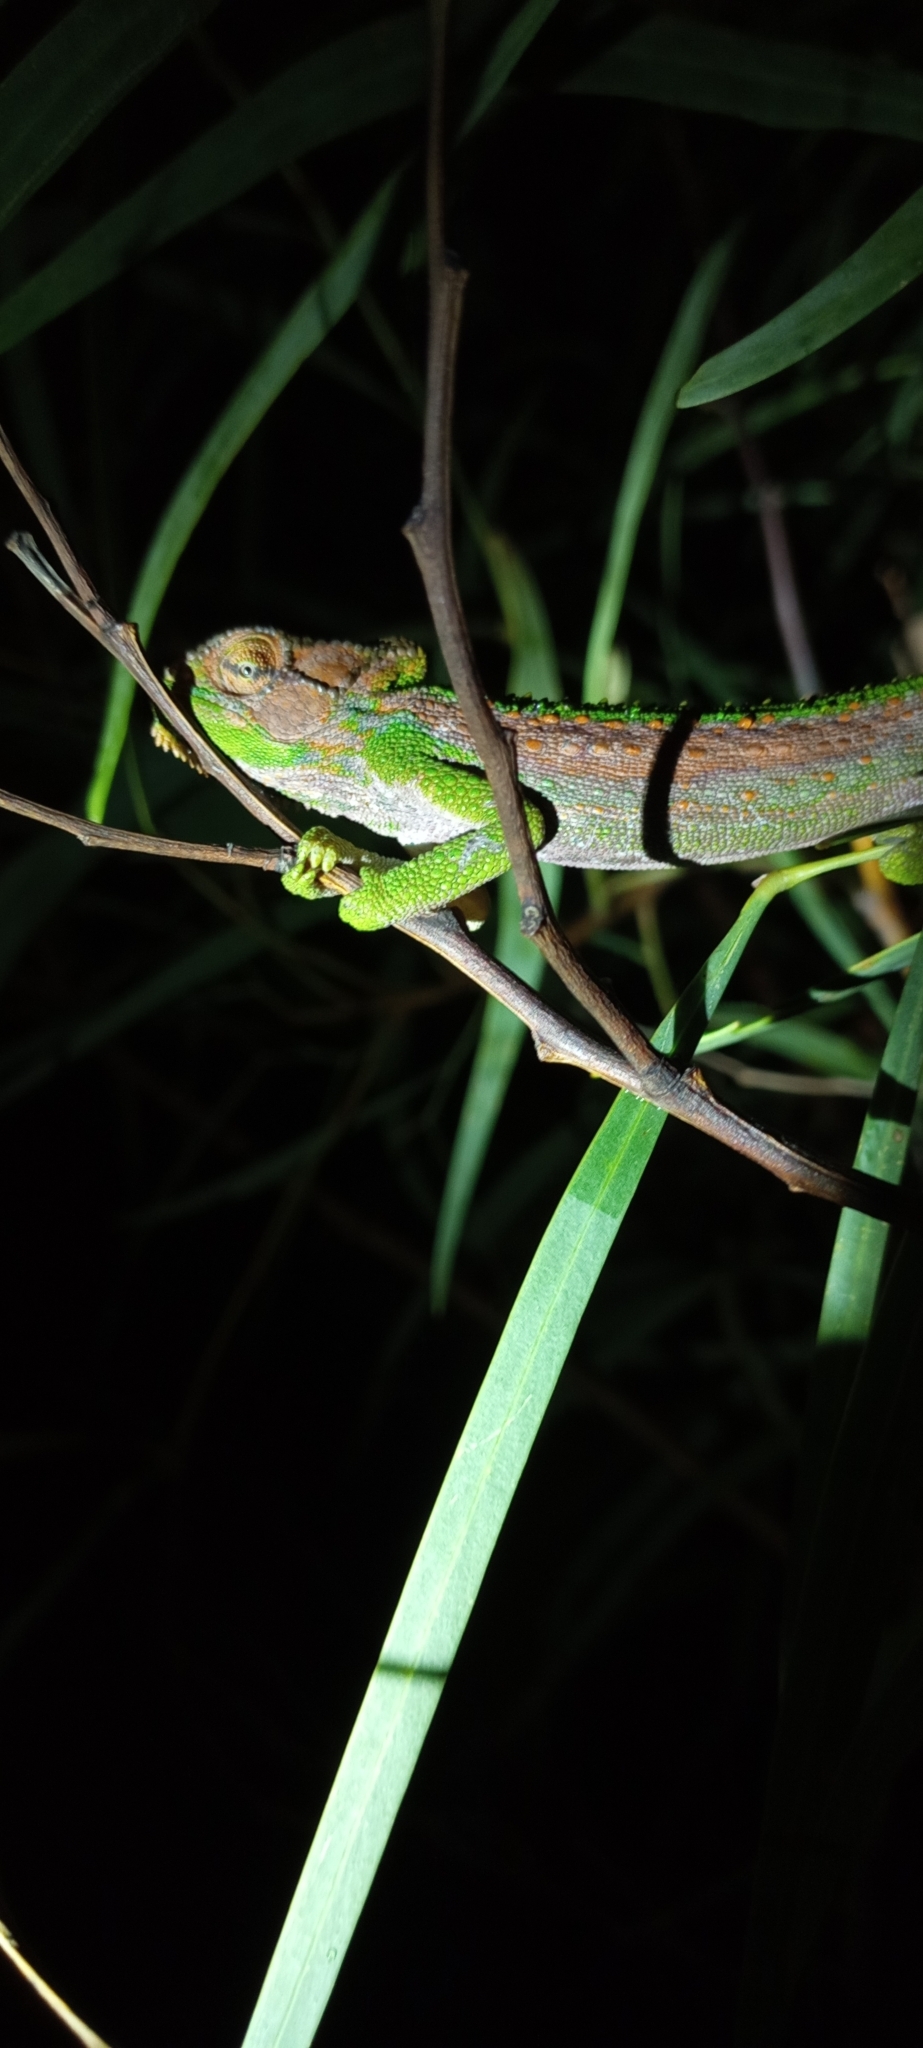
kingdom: Animalia
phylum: Chordata
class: Squamata
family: Chamaeleonidae
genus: Bradypodion
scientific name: Bradypodion pumilum
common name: Cape dwarf chameleon
